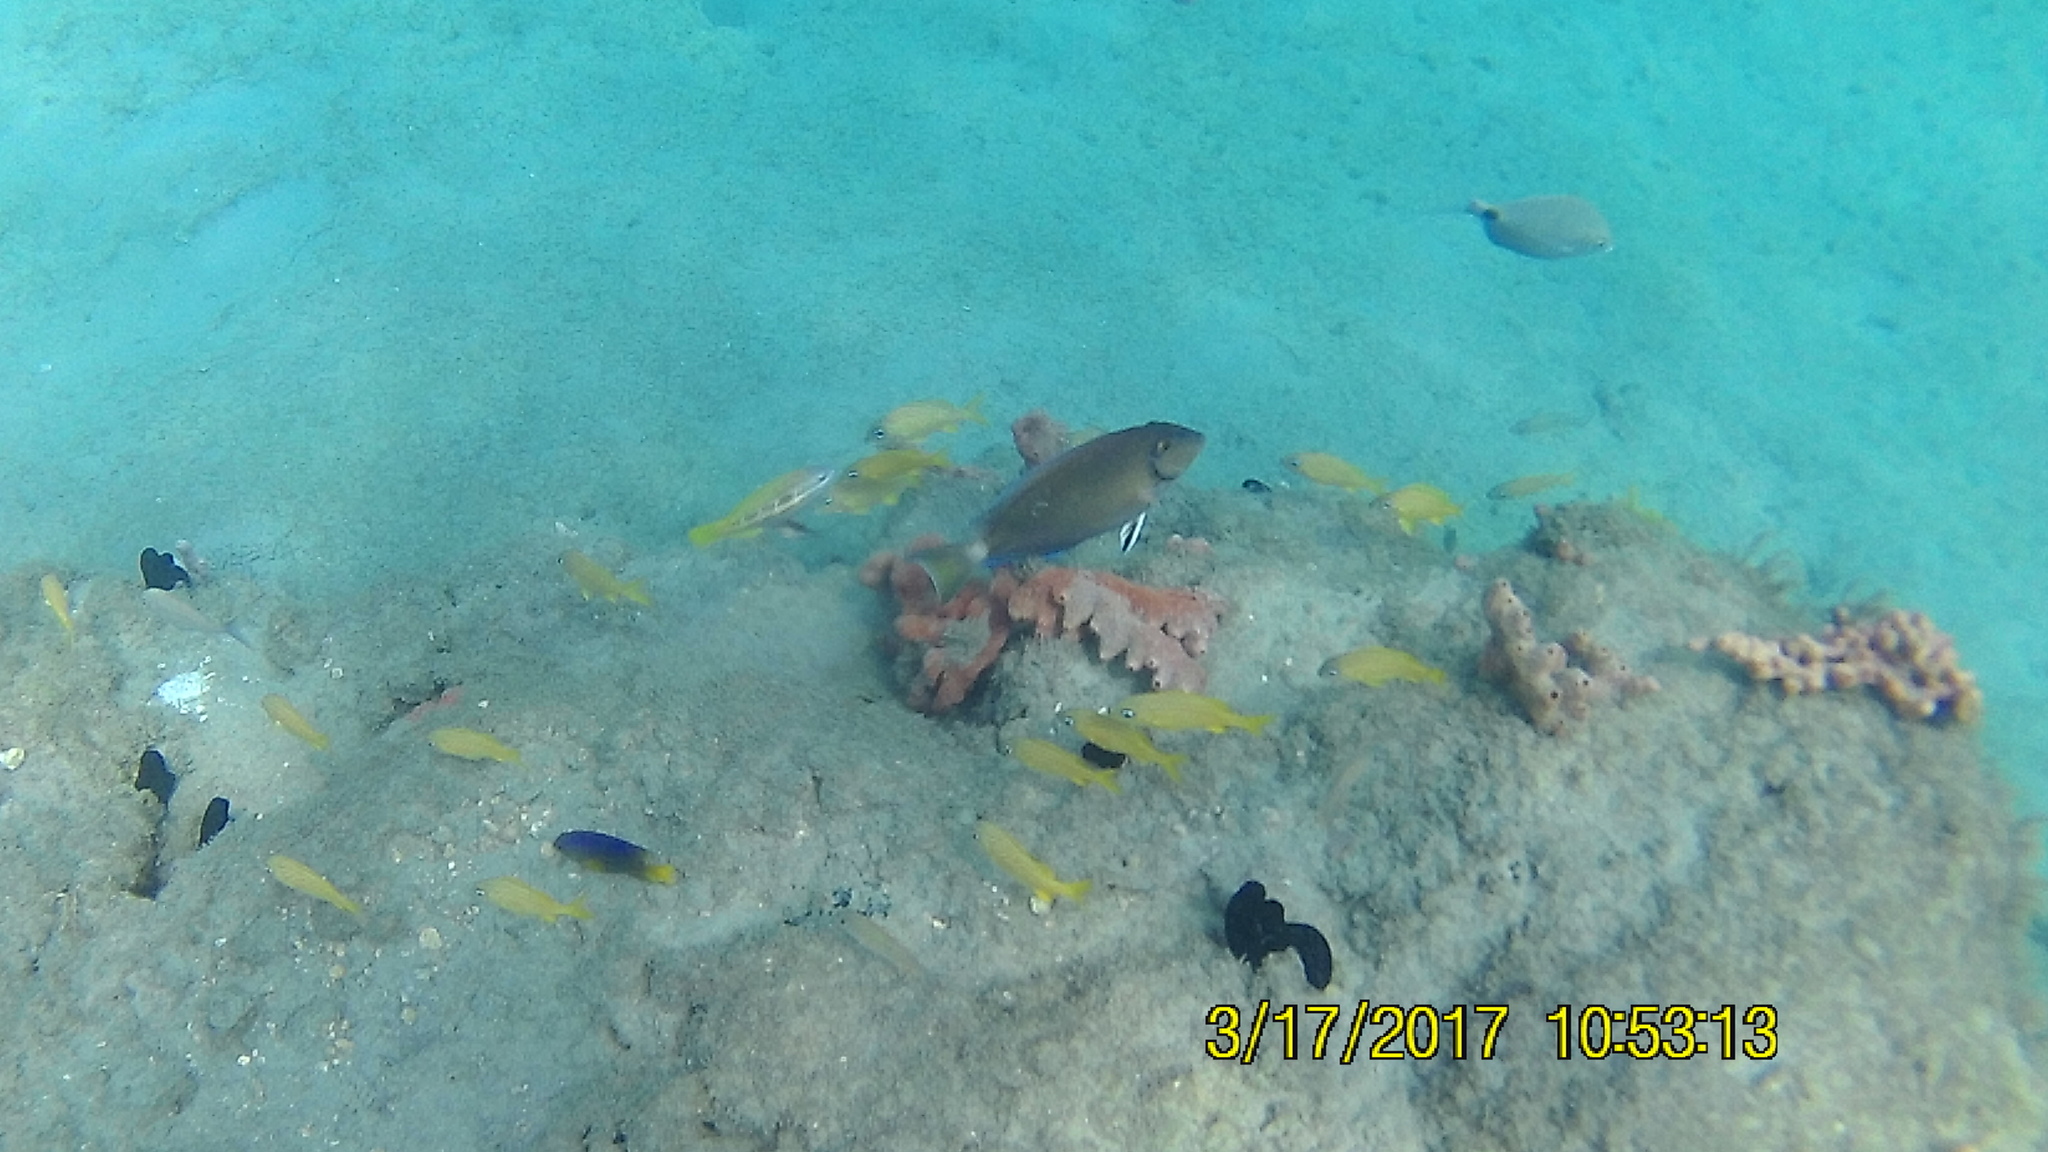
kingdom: Animalia
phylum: Chordata
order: Perciformes
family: Acanthuridae
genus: Acanthurus
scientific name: Acanthurus bahianus
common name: Ocean surgeon
